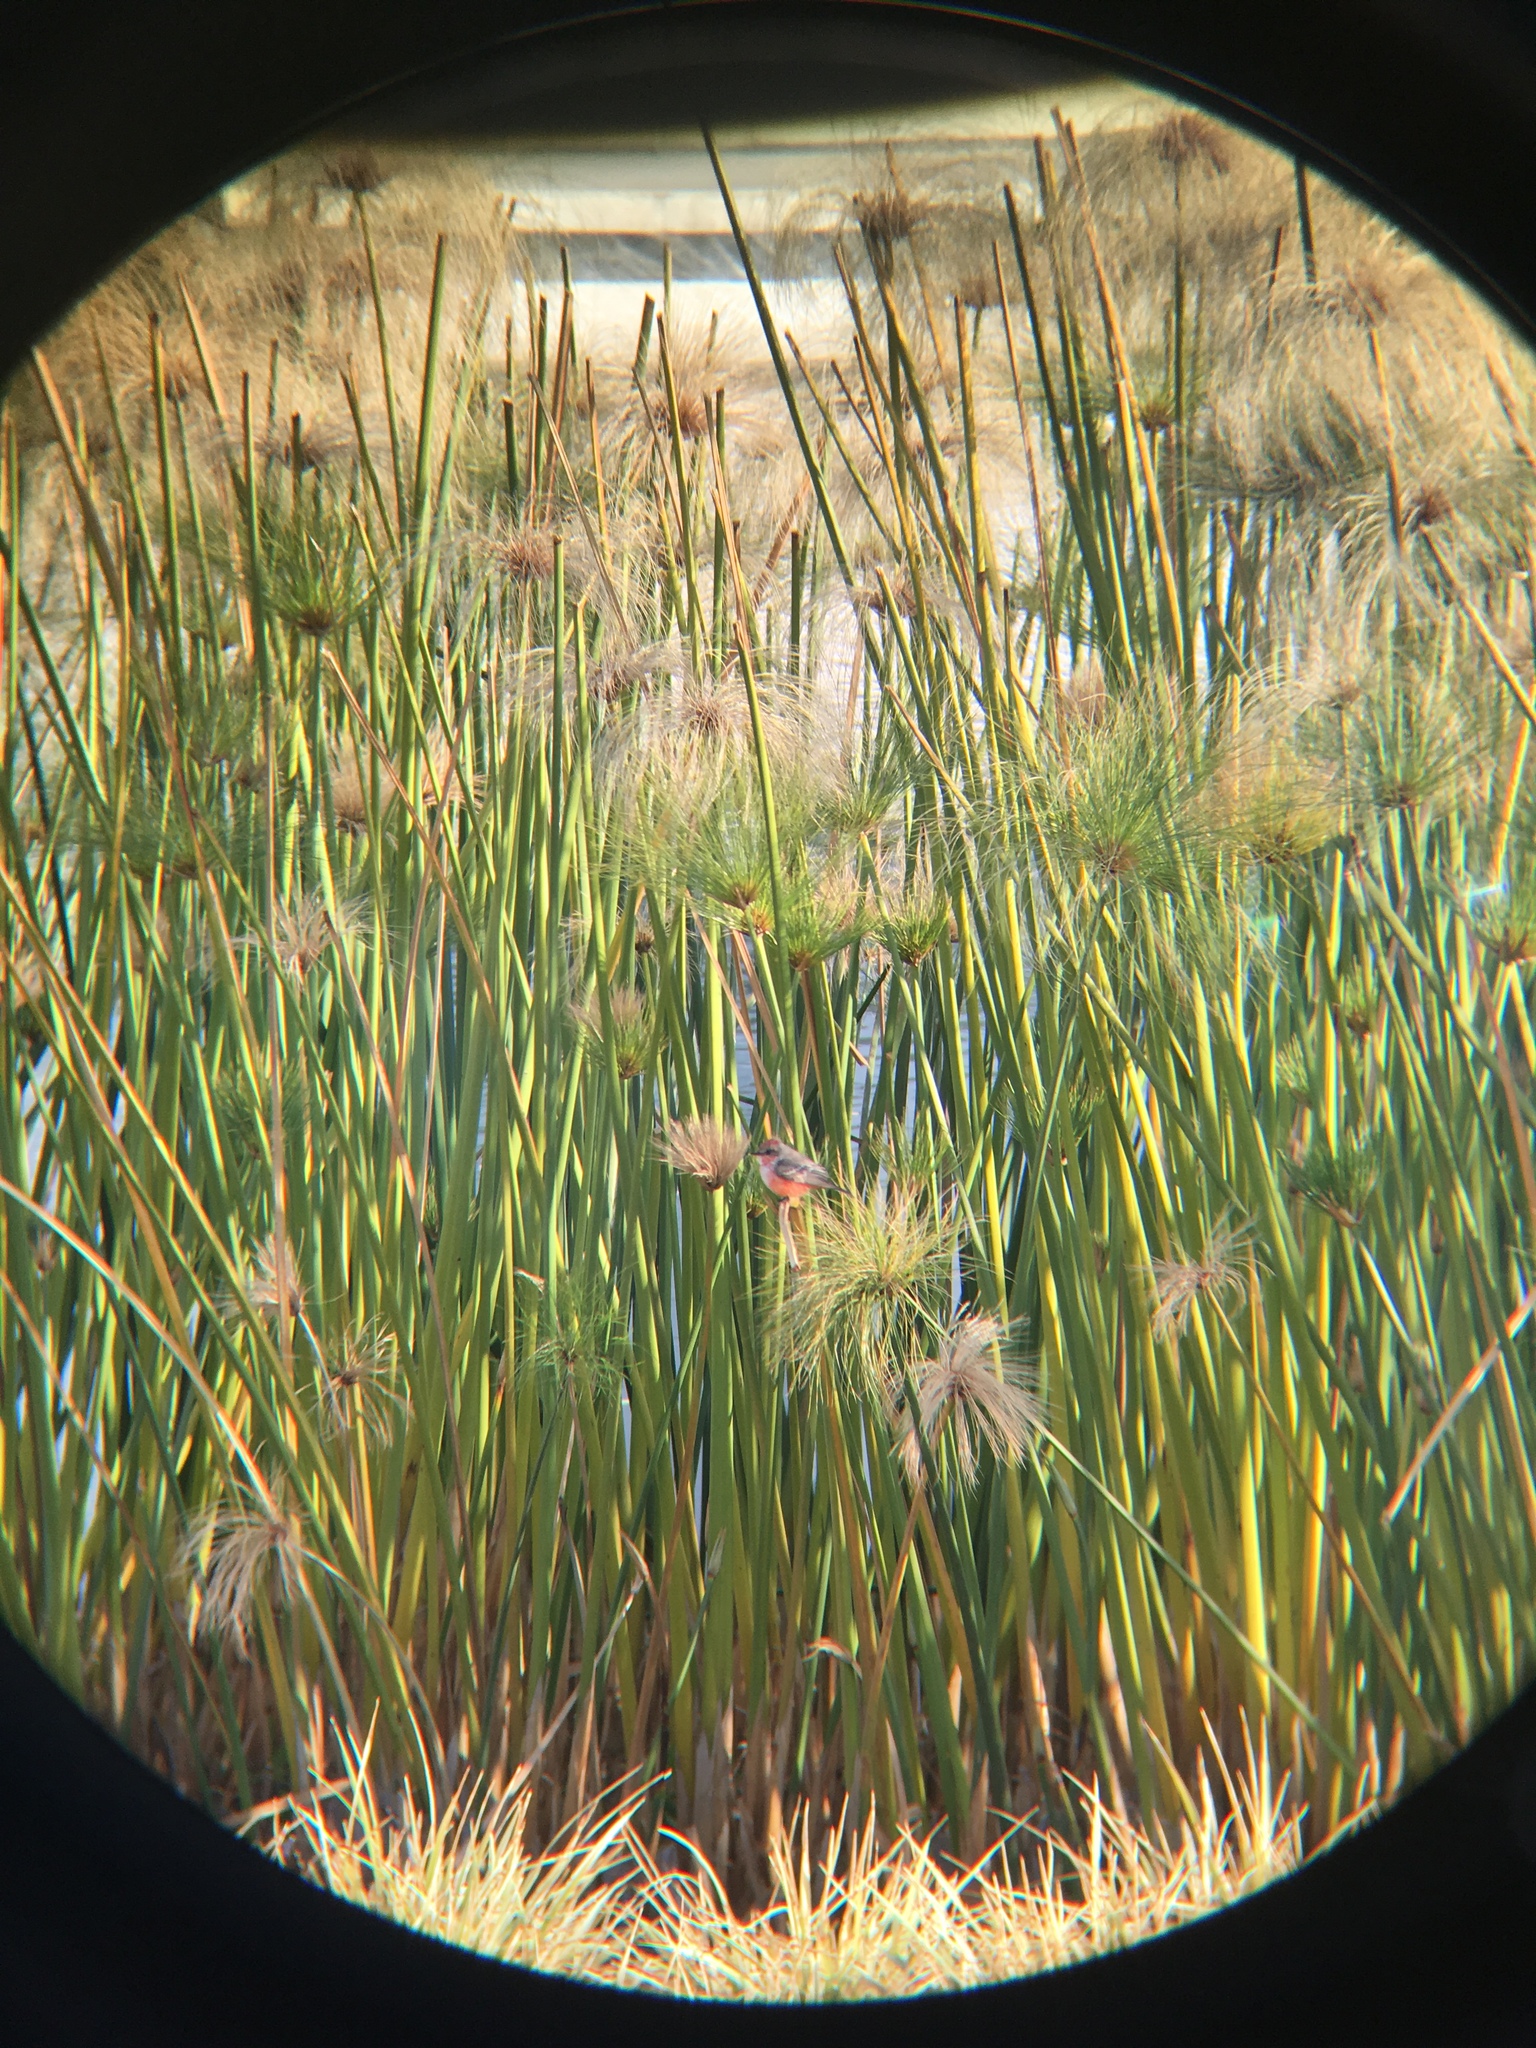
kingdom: Animalia
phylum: Chordata
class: Aves
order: Passeriformes
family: Tyrannidae
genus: Pyrocephalus
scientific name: Pyrocephalus rubinus
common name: Vermilion flycatcher
